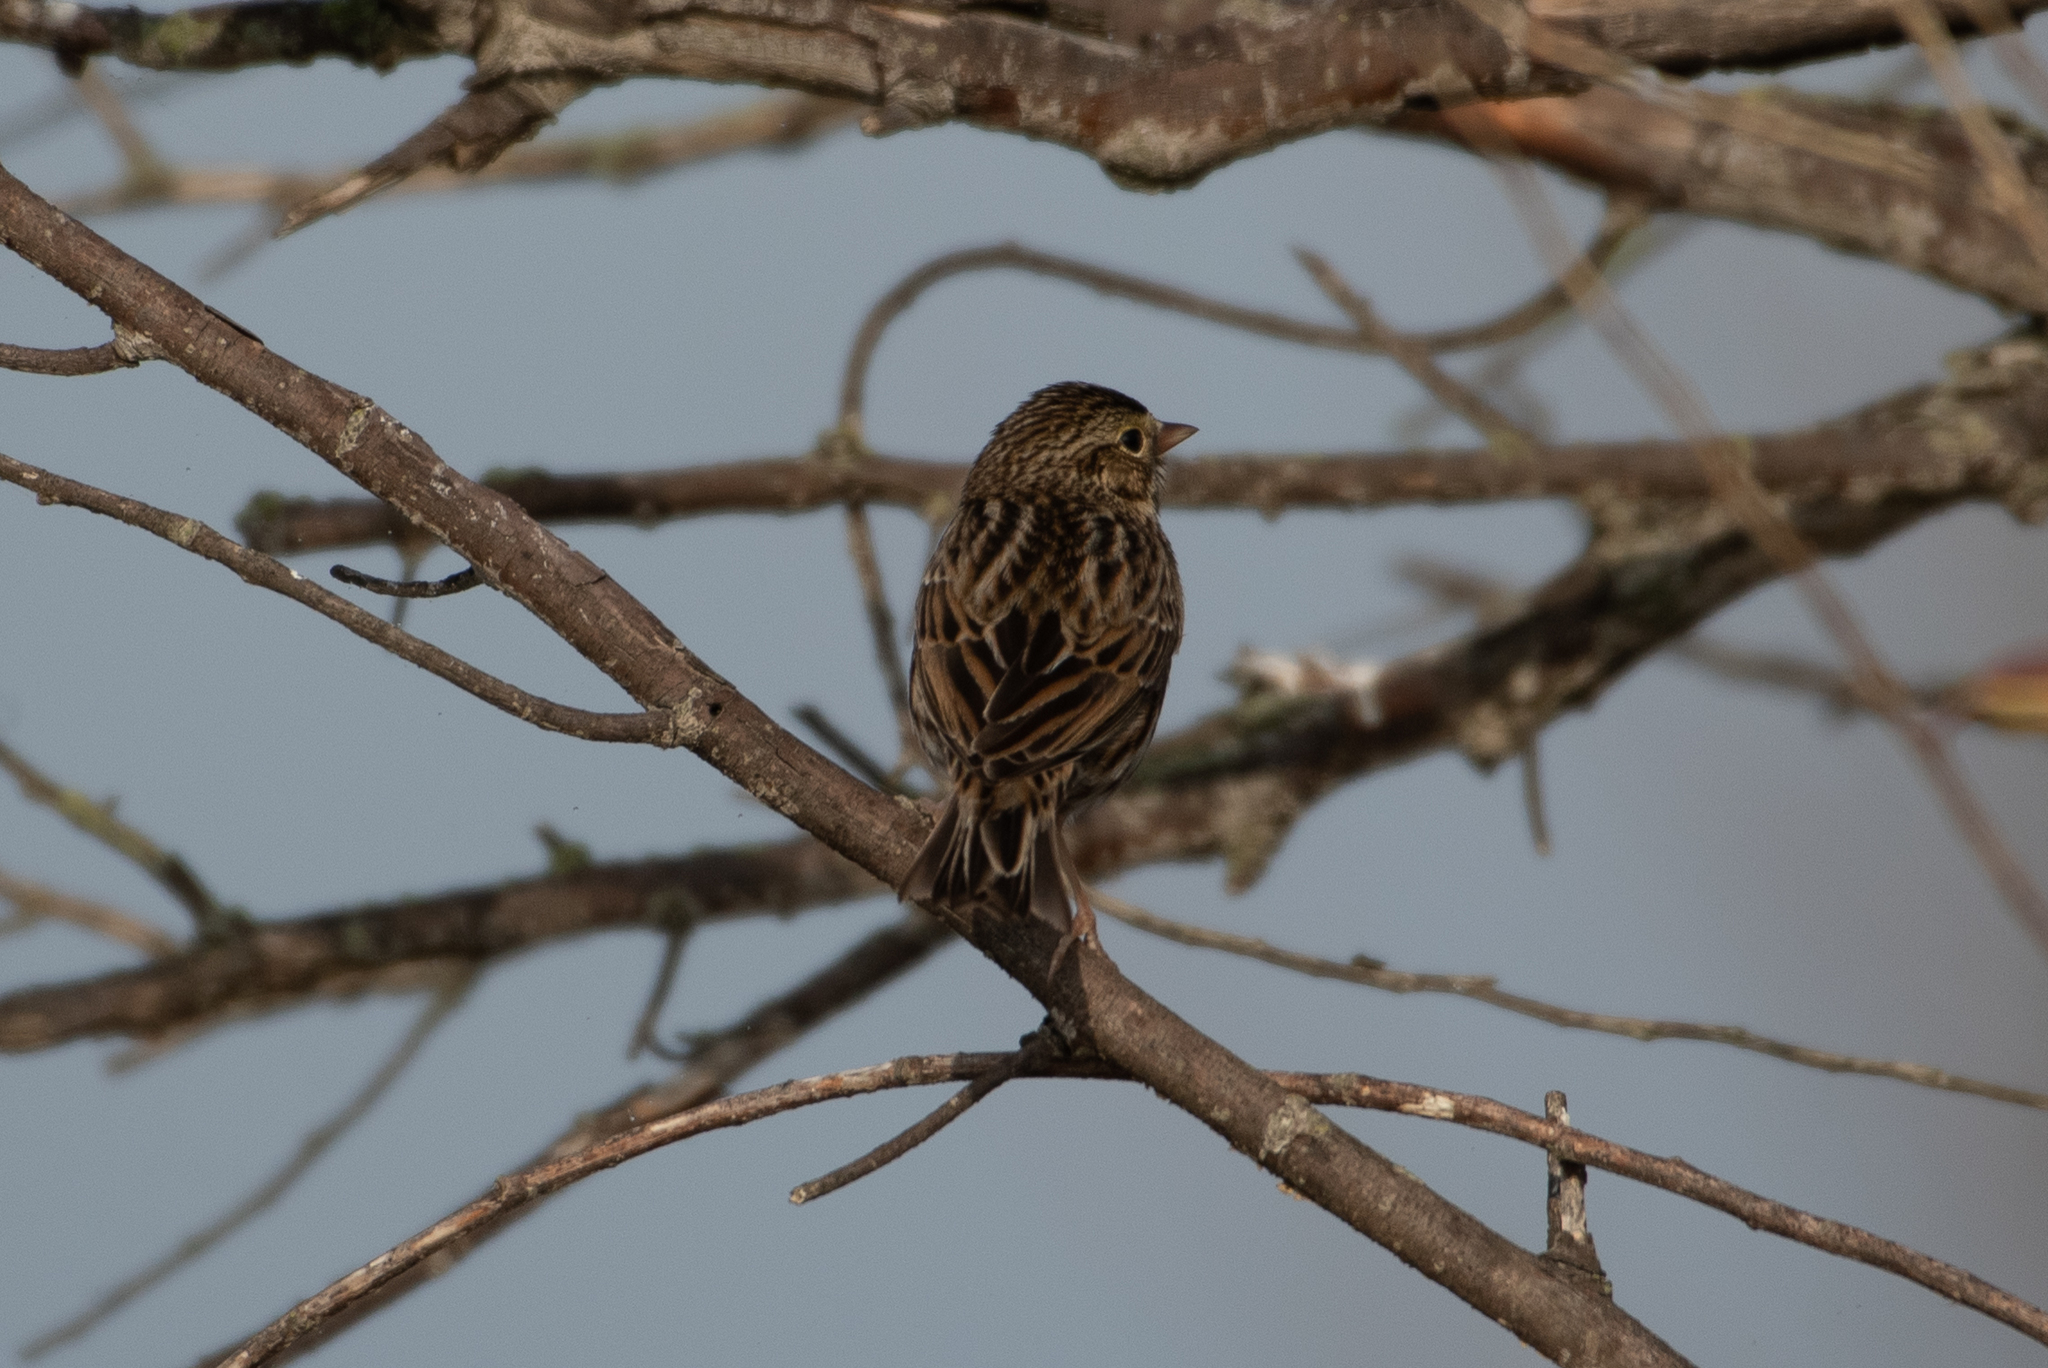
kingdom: Animalia
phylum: Chordata
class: Aves
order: Passeriformes
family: Passerellidae
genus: Passerculus
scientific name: Passerculus sandwichensis
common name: Savannah sparrow
